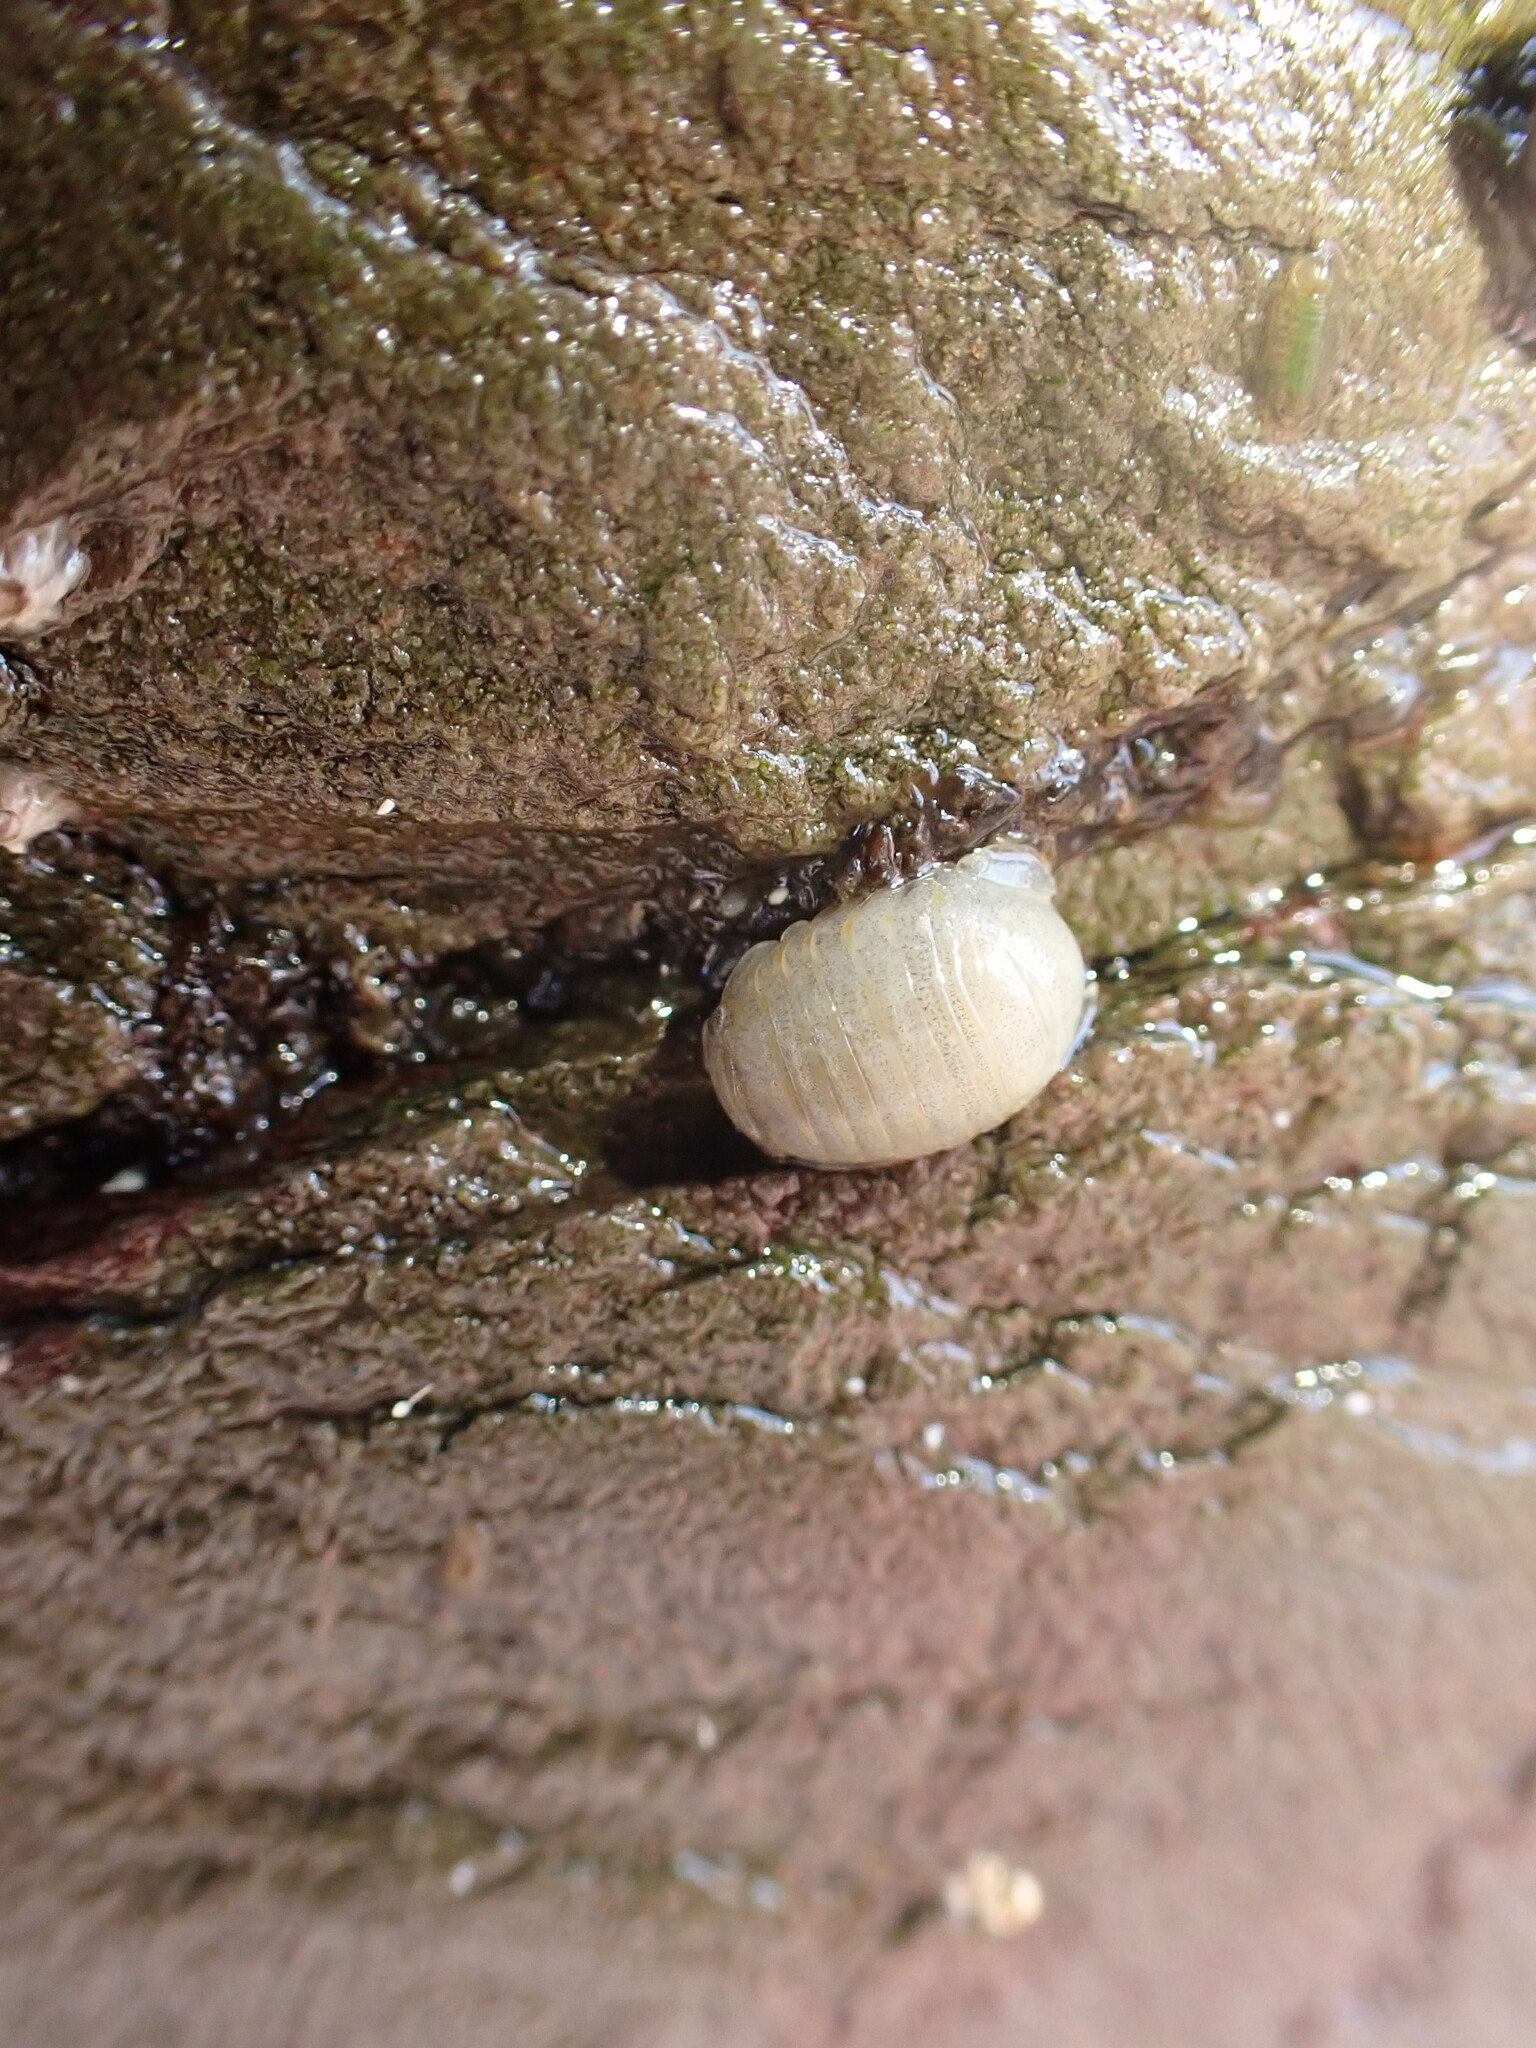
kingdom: Animalia
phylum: Arthropoda
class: Malacostraca
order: Isopoda
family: Sphaeromatidae
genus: Sphaeroma
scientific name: Sphaeroma serratum
